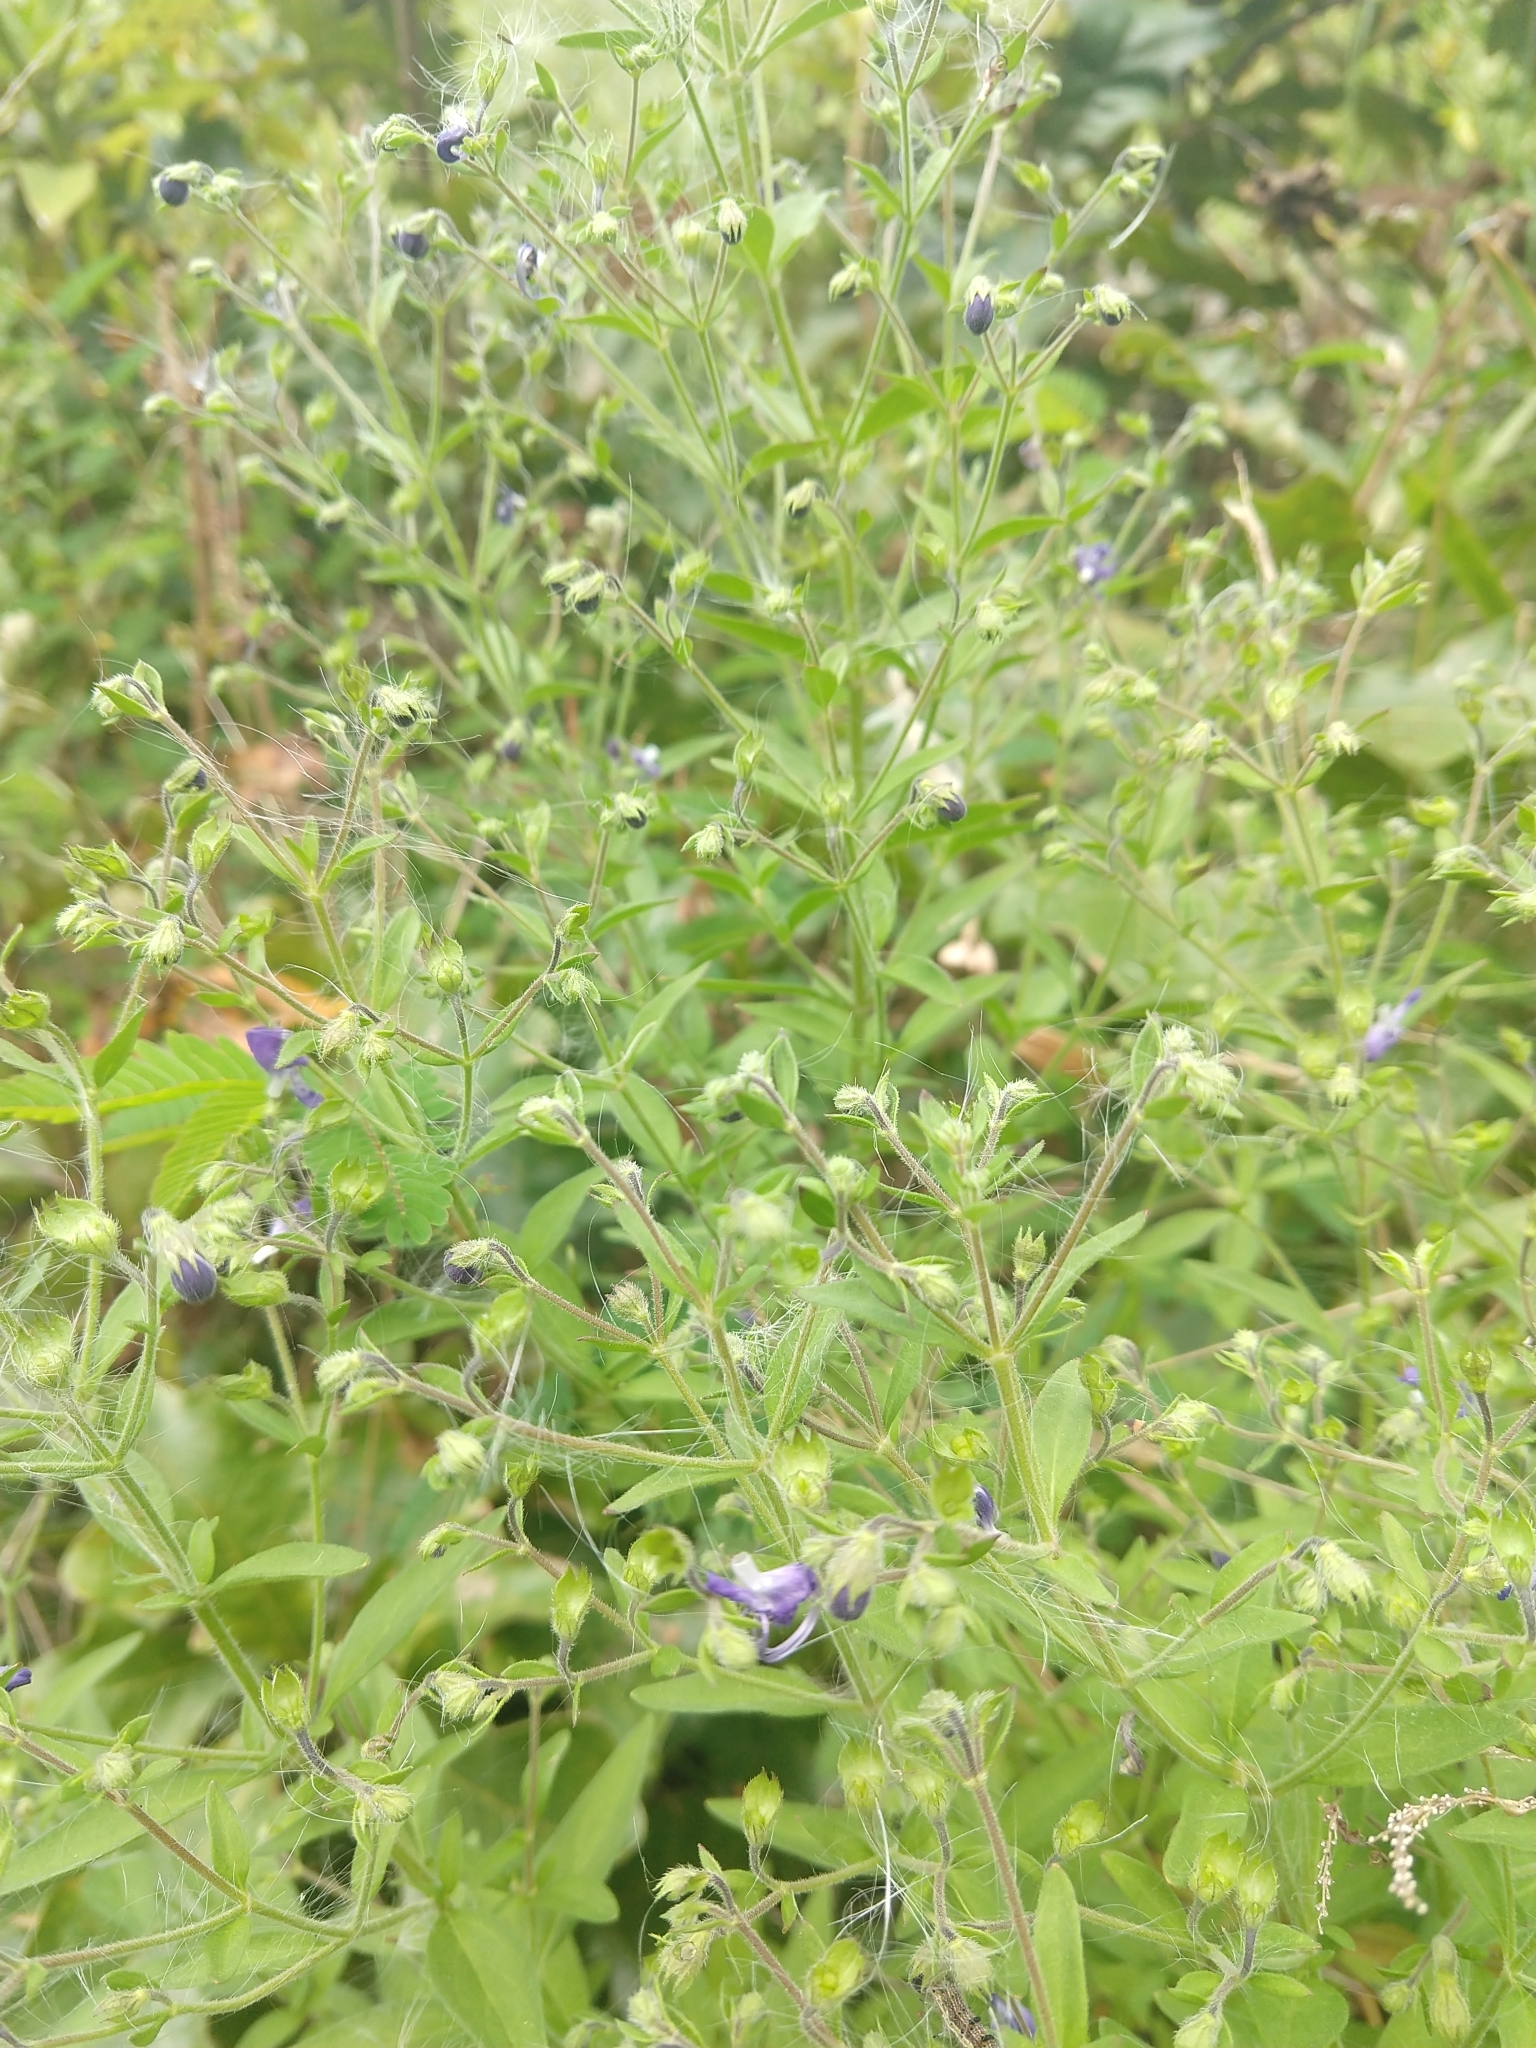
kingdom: Plantae
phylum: Tracheophyta
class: Magnoliopsida
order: Lamiales
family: Lamiaceae
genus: Trichostema
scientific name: Trichostema dichotomum
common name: Bastard pennyroyal
